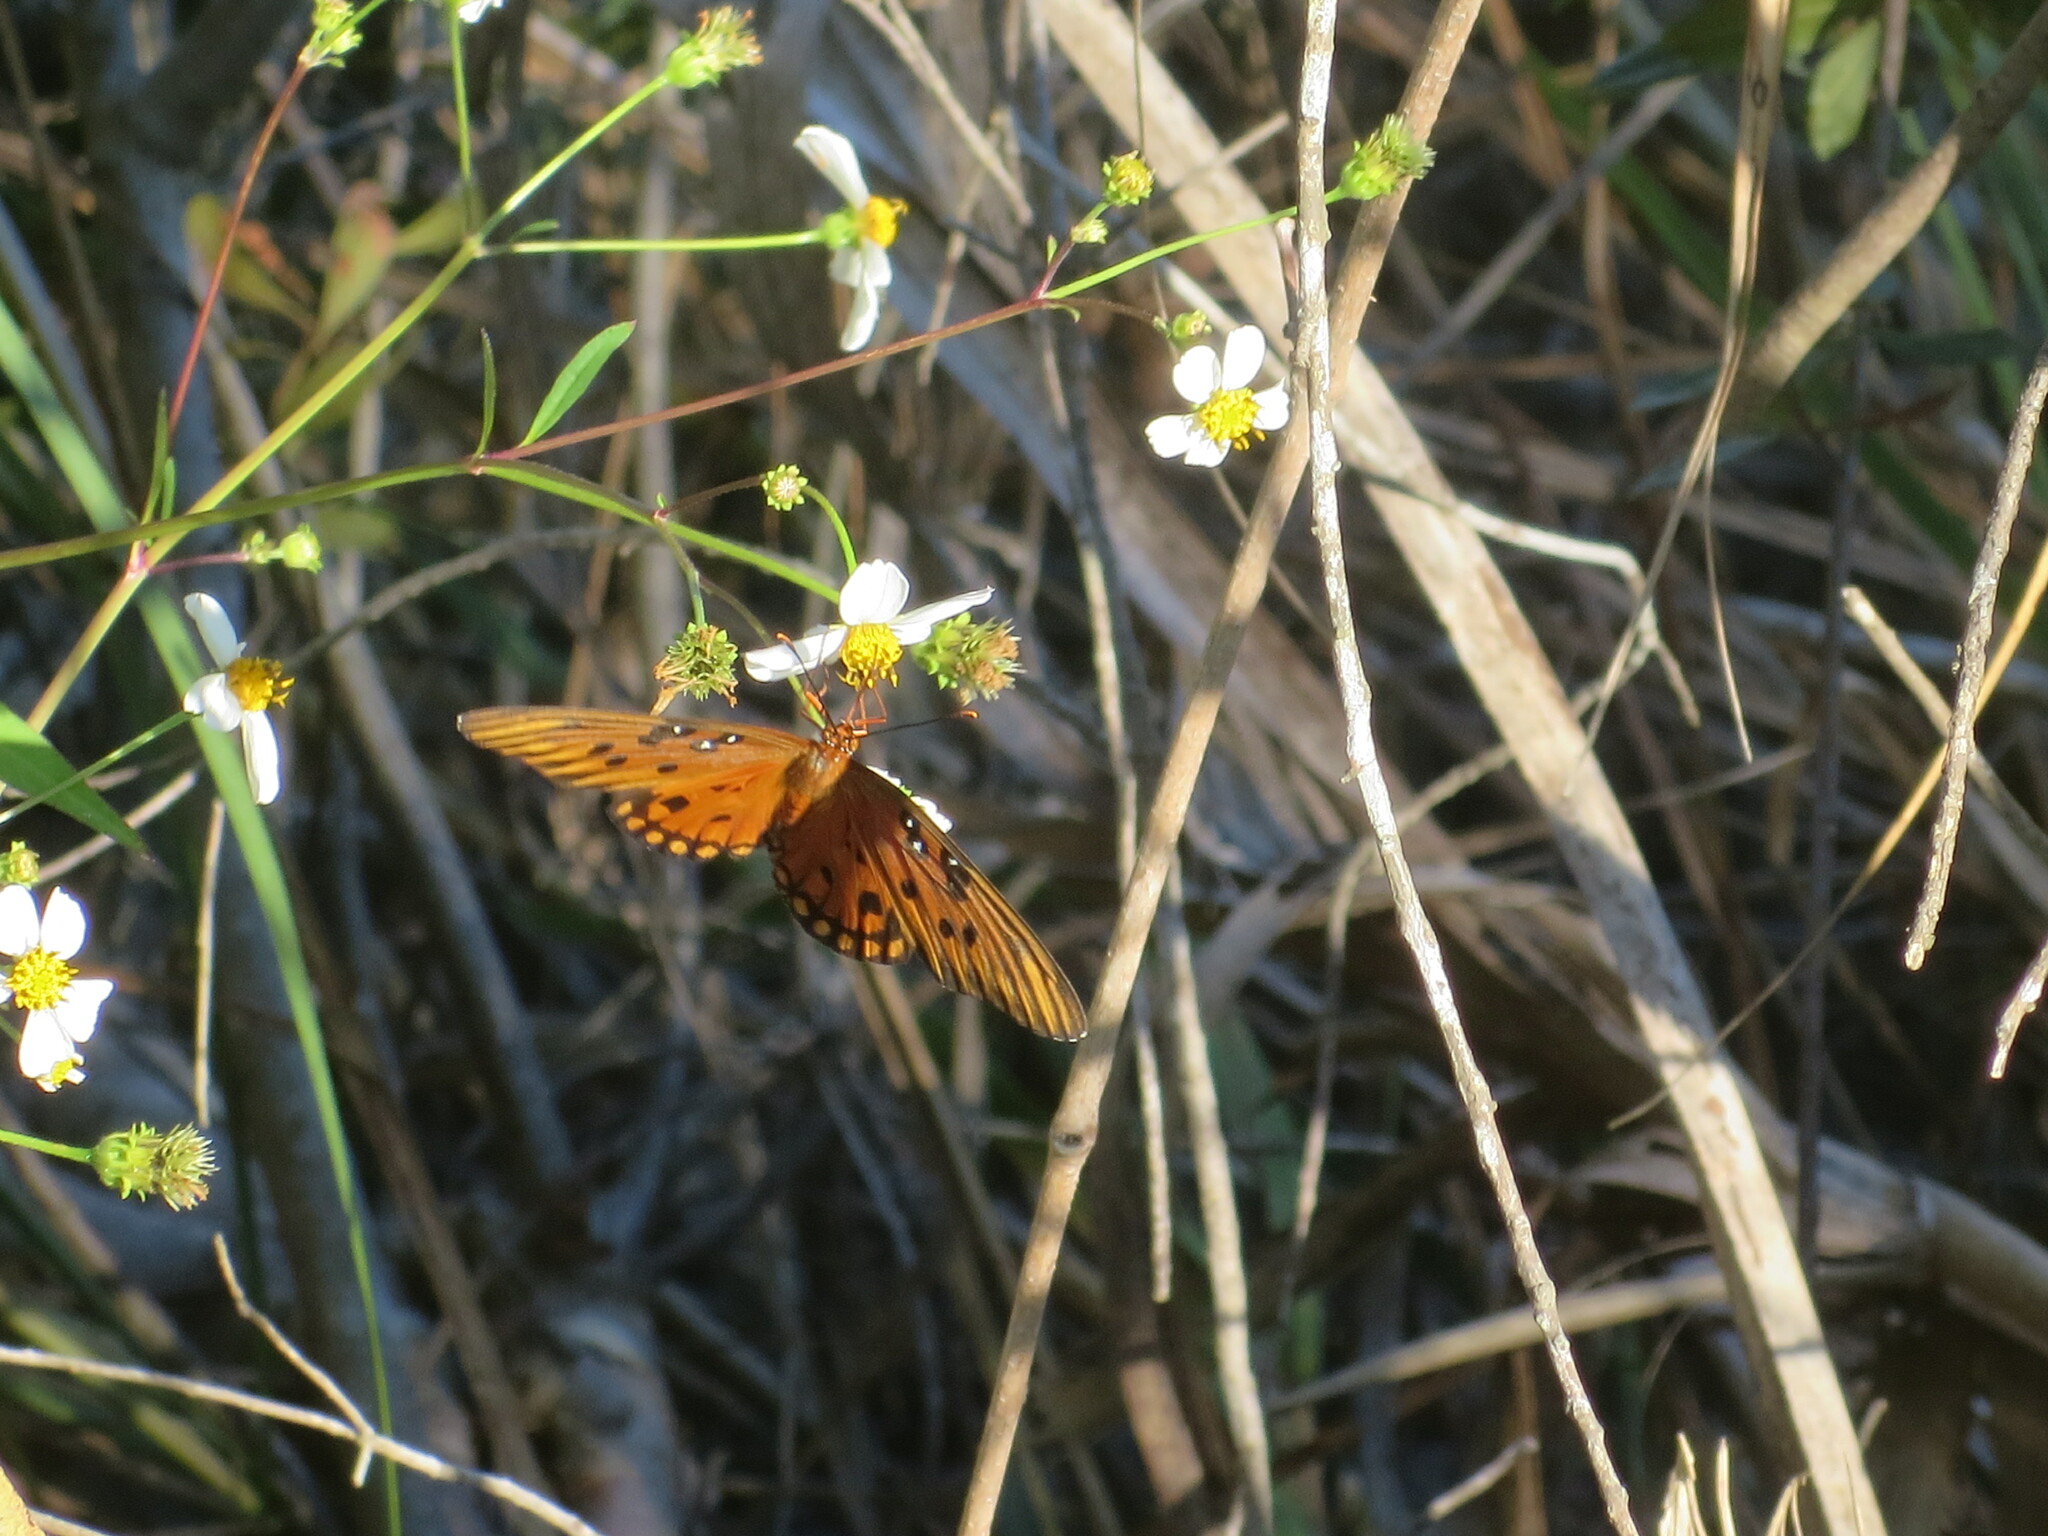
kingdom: Animalia
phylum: Arthropoda
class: Insecta
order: Lepidoptera
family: Nymphalidae
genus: Dione
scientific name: Dione vanillae
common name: Gulf fritillary
